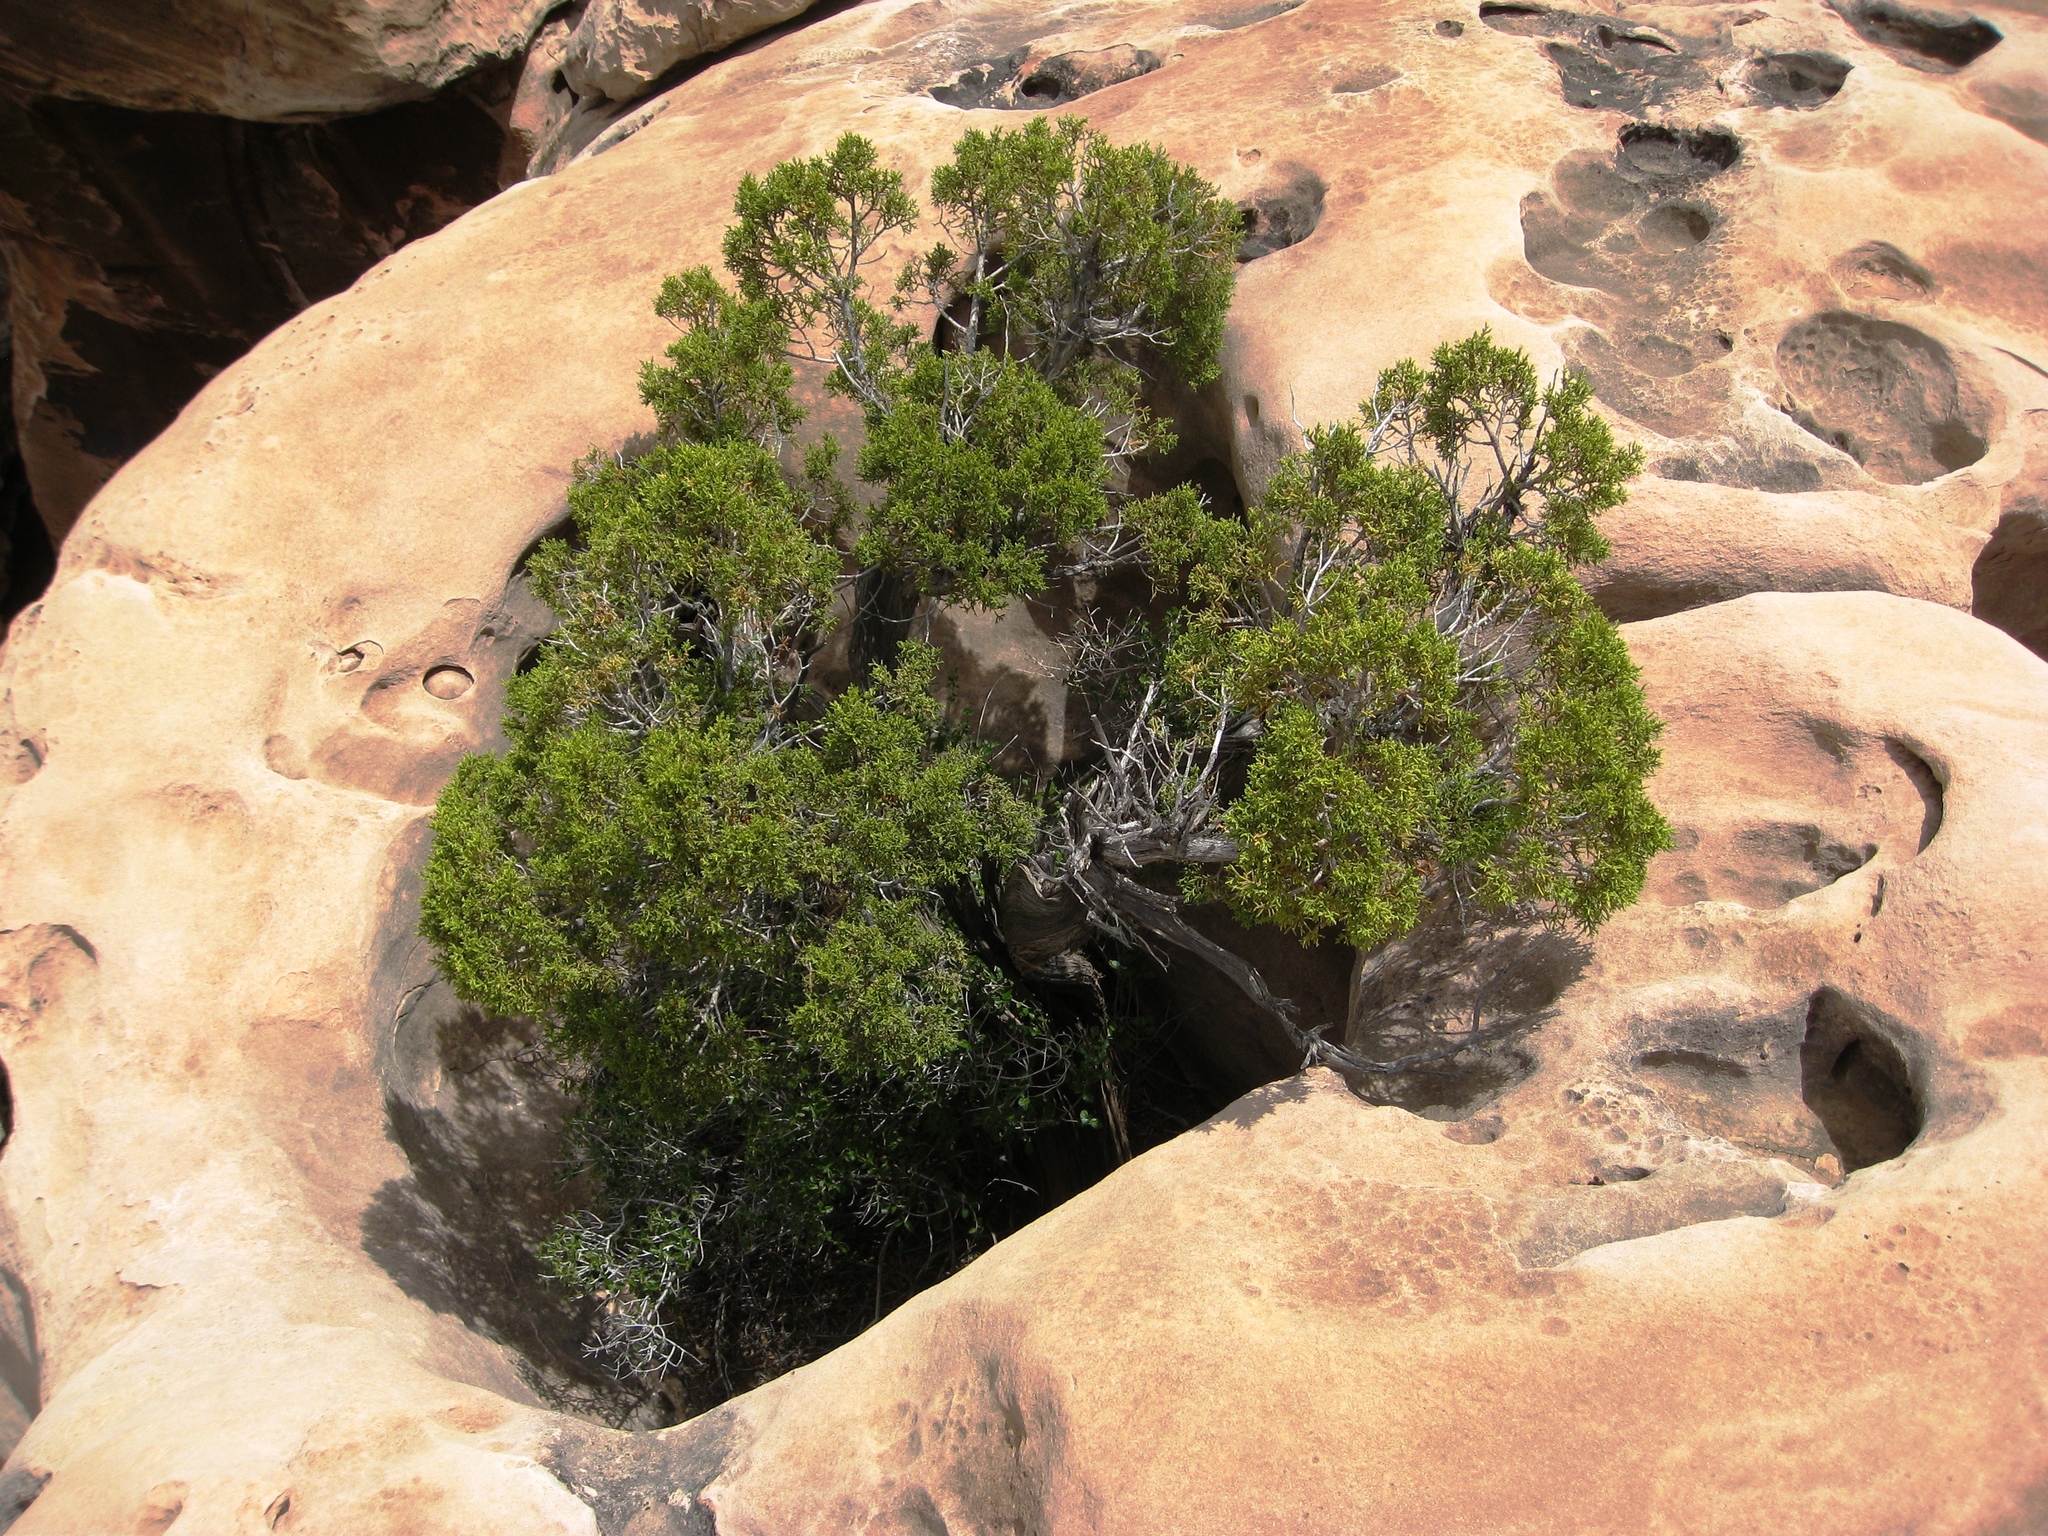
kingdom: Plantae
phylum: Tracheophyta
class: Pinopsida
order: Pinales
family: Cupressaceae
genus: Juniperus
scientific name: Juniperus osteosperma
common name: Utah juniper
